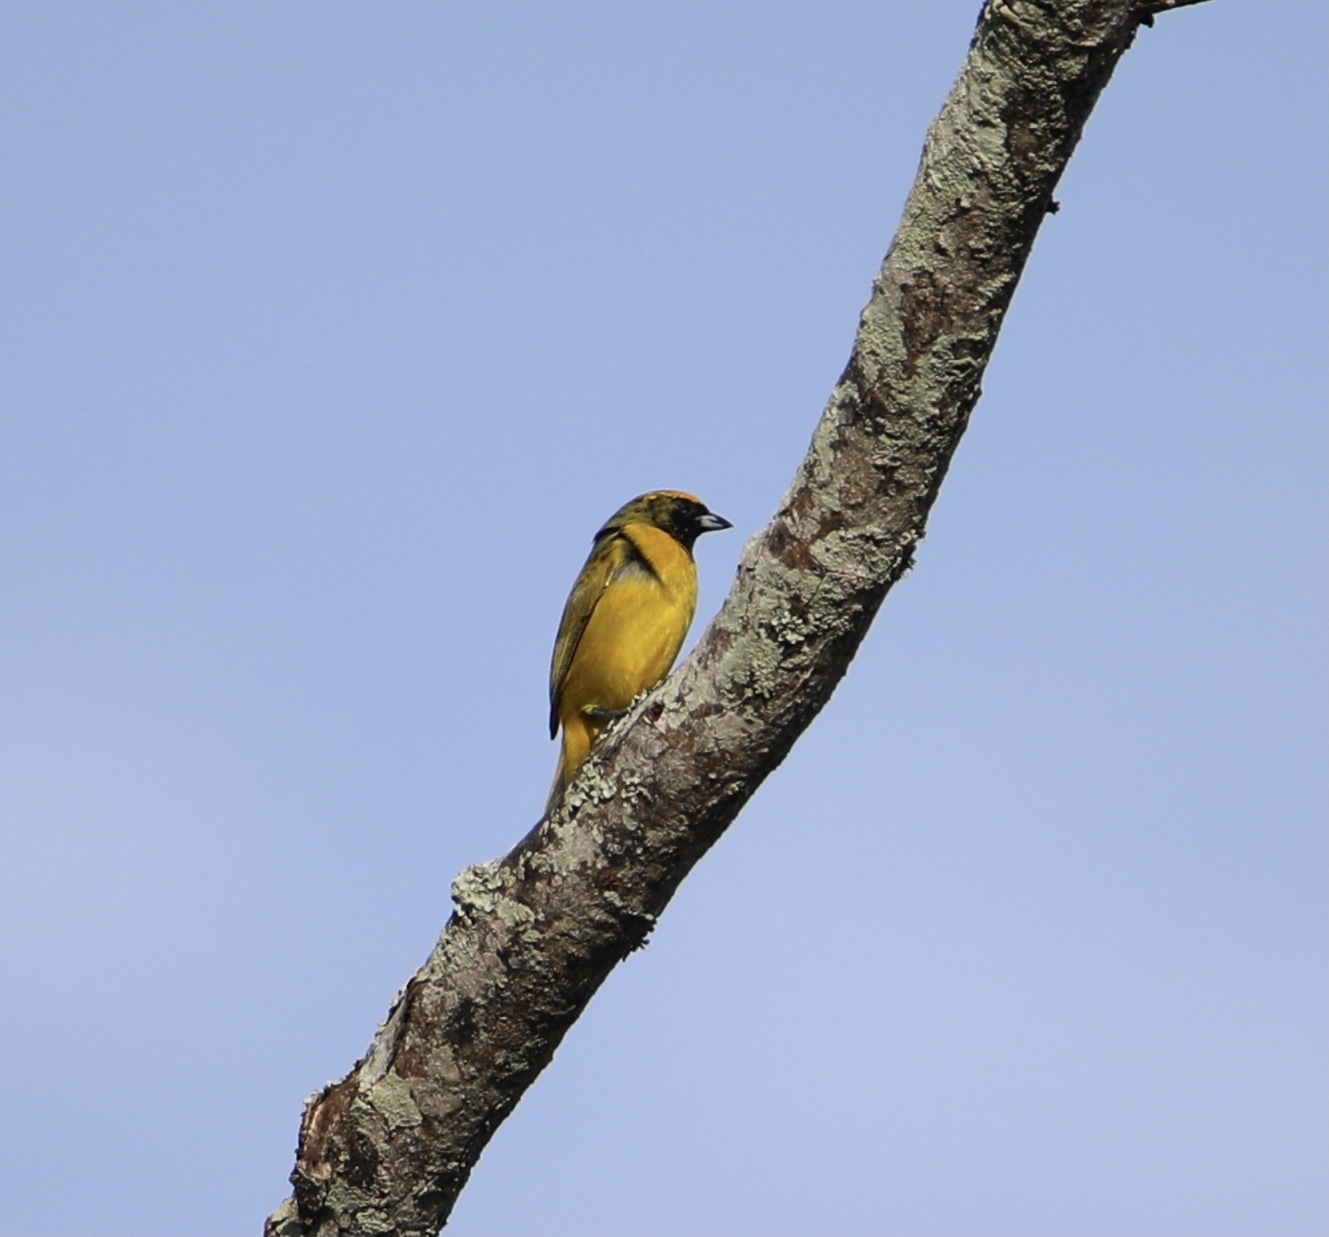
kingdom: Animalia
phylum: Chordata
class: Aves
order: Passeriformes
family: Fringillidae
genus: Euphonia
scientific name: Euphonia luteicapilla
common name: Yellow-crowned euphonia
